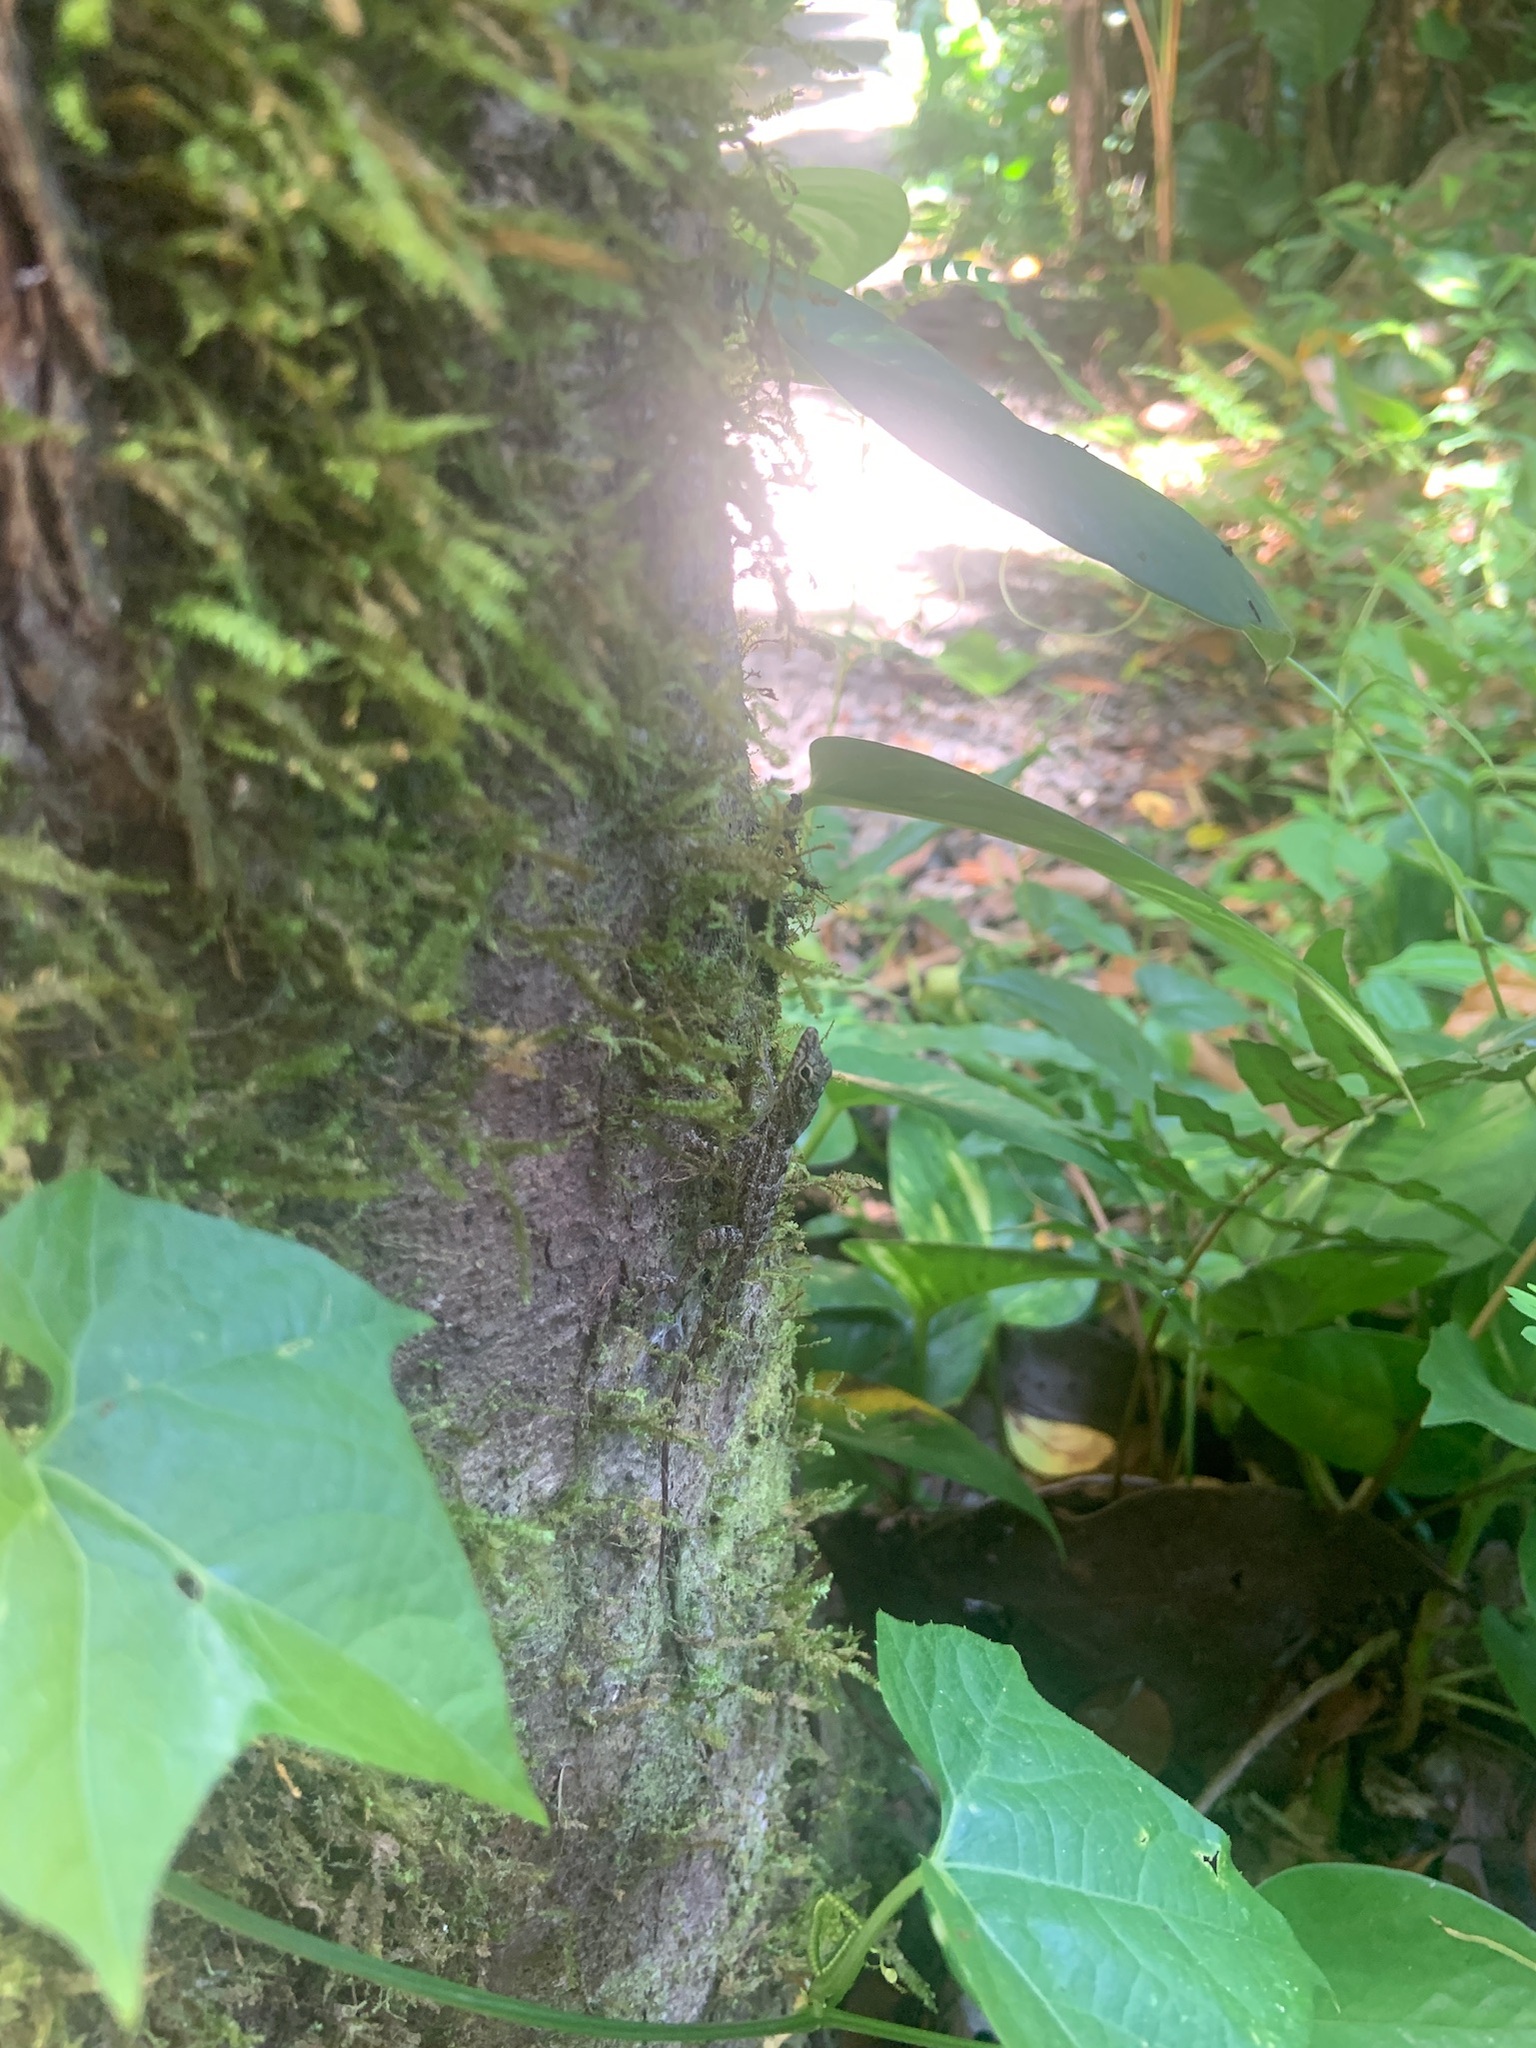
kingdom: Animalia
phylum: Chordata
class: Squamata
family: Dactyloidae
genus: Anolis
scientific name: Anolis stratulus
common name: Banded anole
